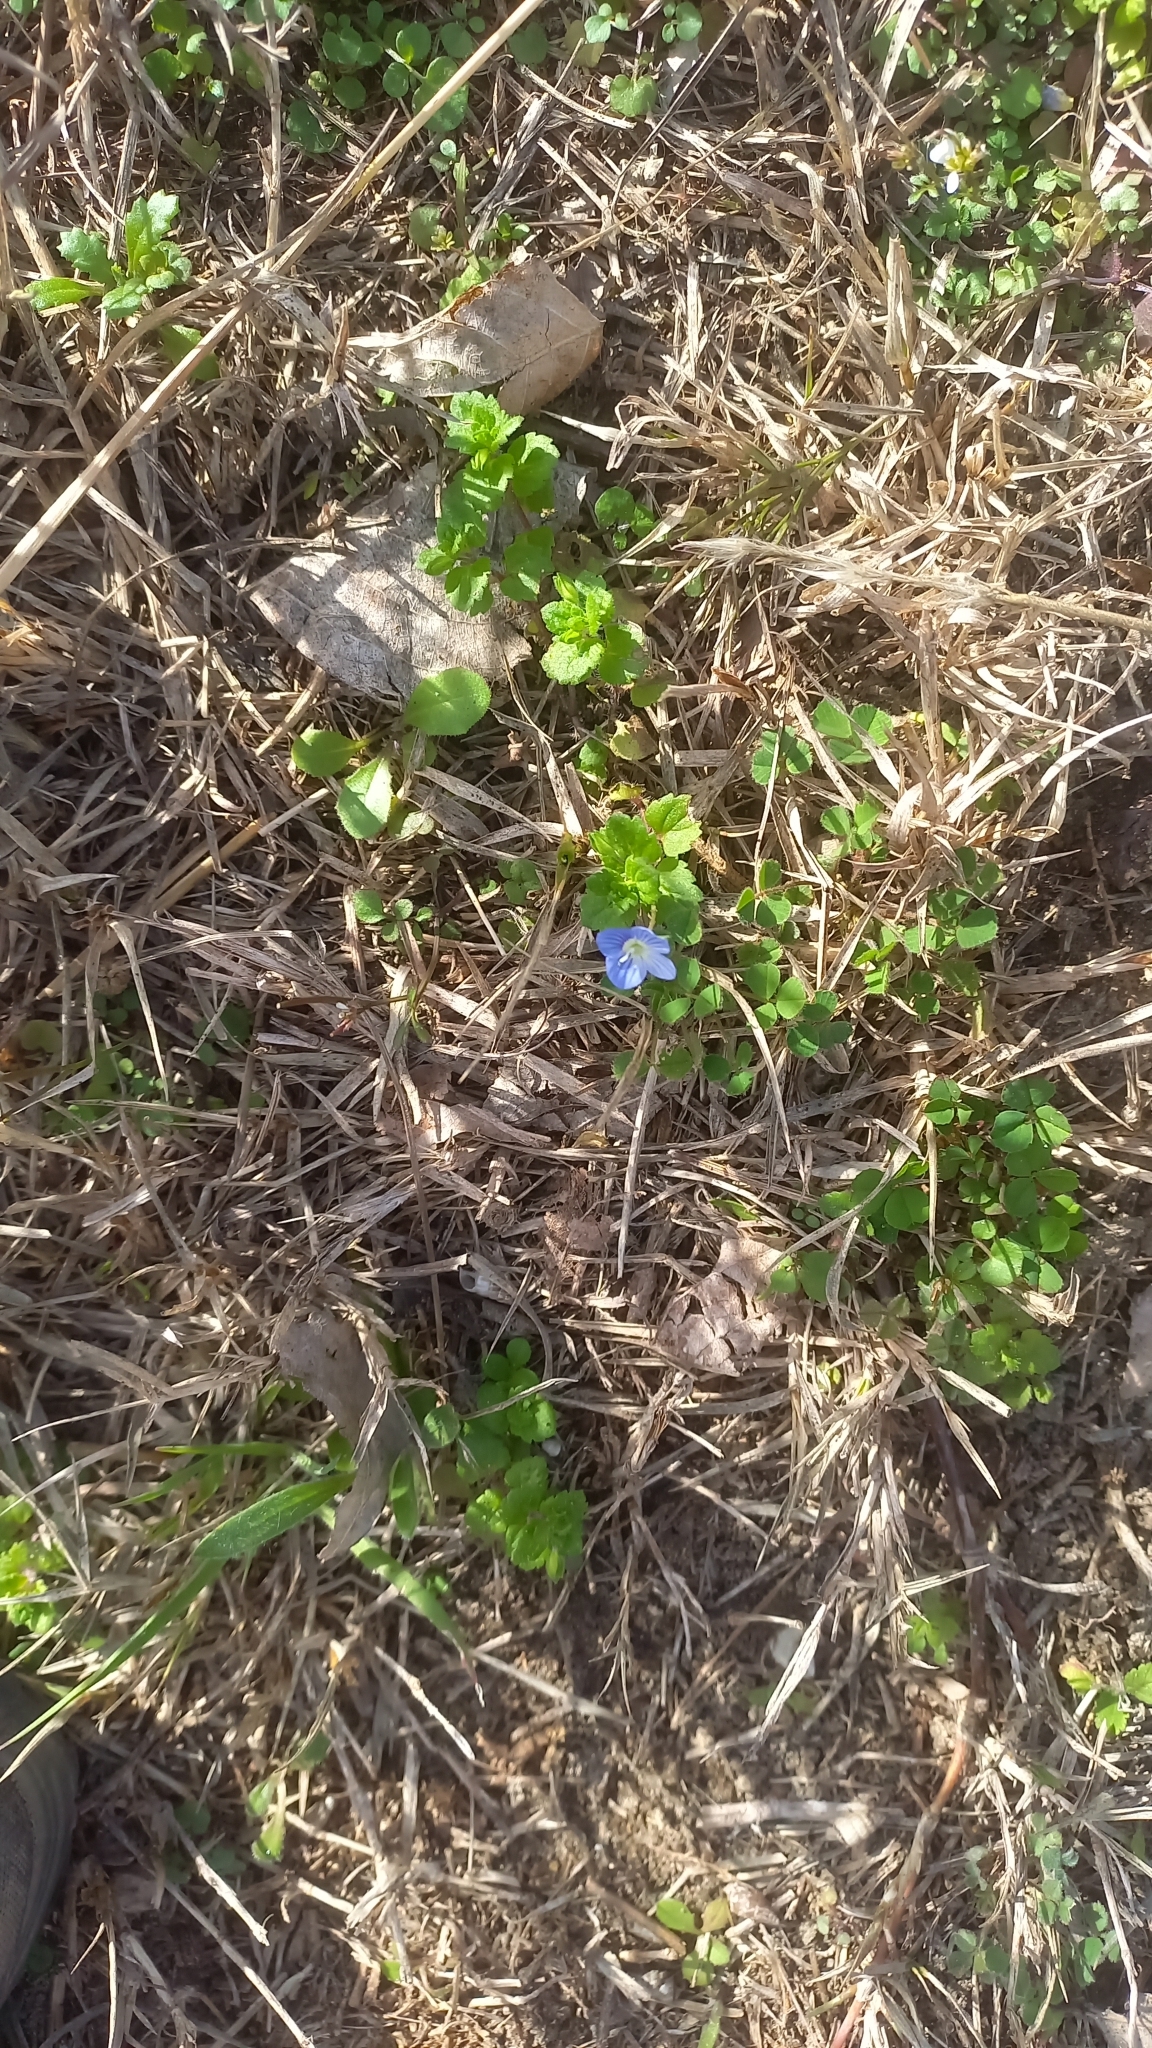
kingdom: Plantae
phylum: Tracheophyta
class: Magnoliopsida
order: Lamiales
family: Plantaginaceae
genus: Veronica
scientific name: Veronica persica
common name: Common field-speedwell
